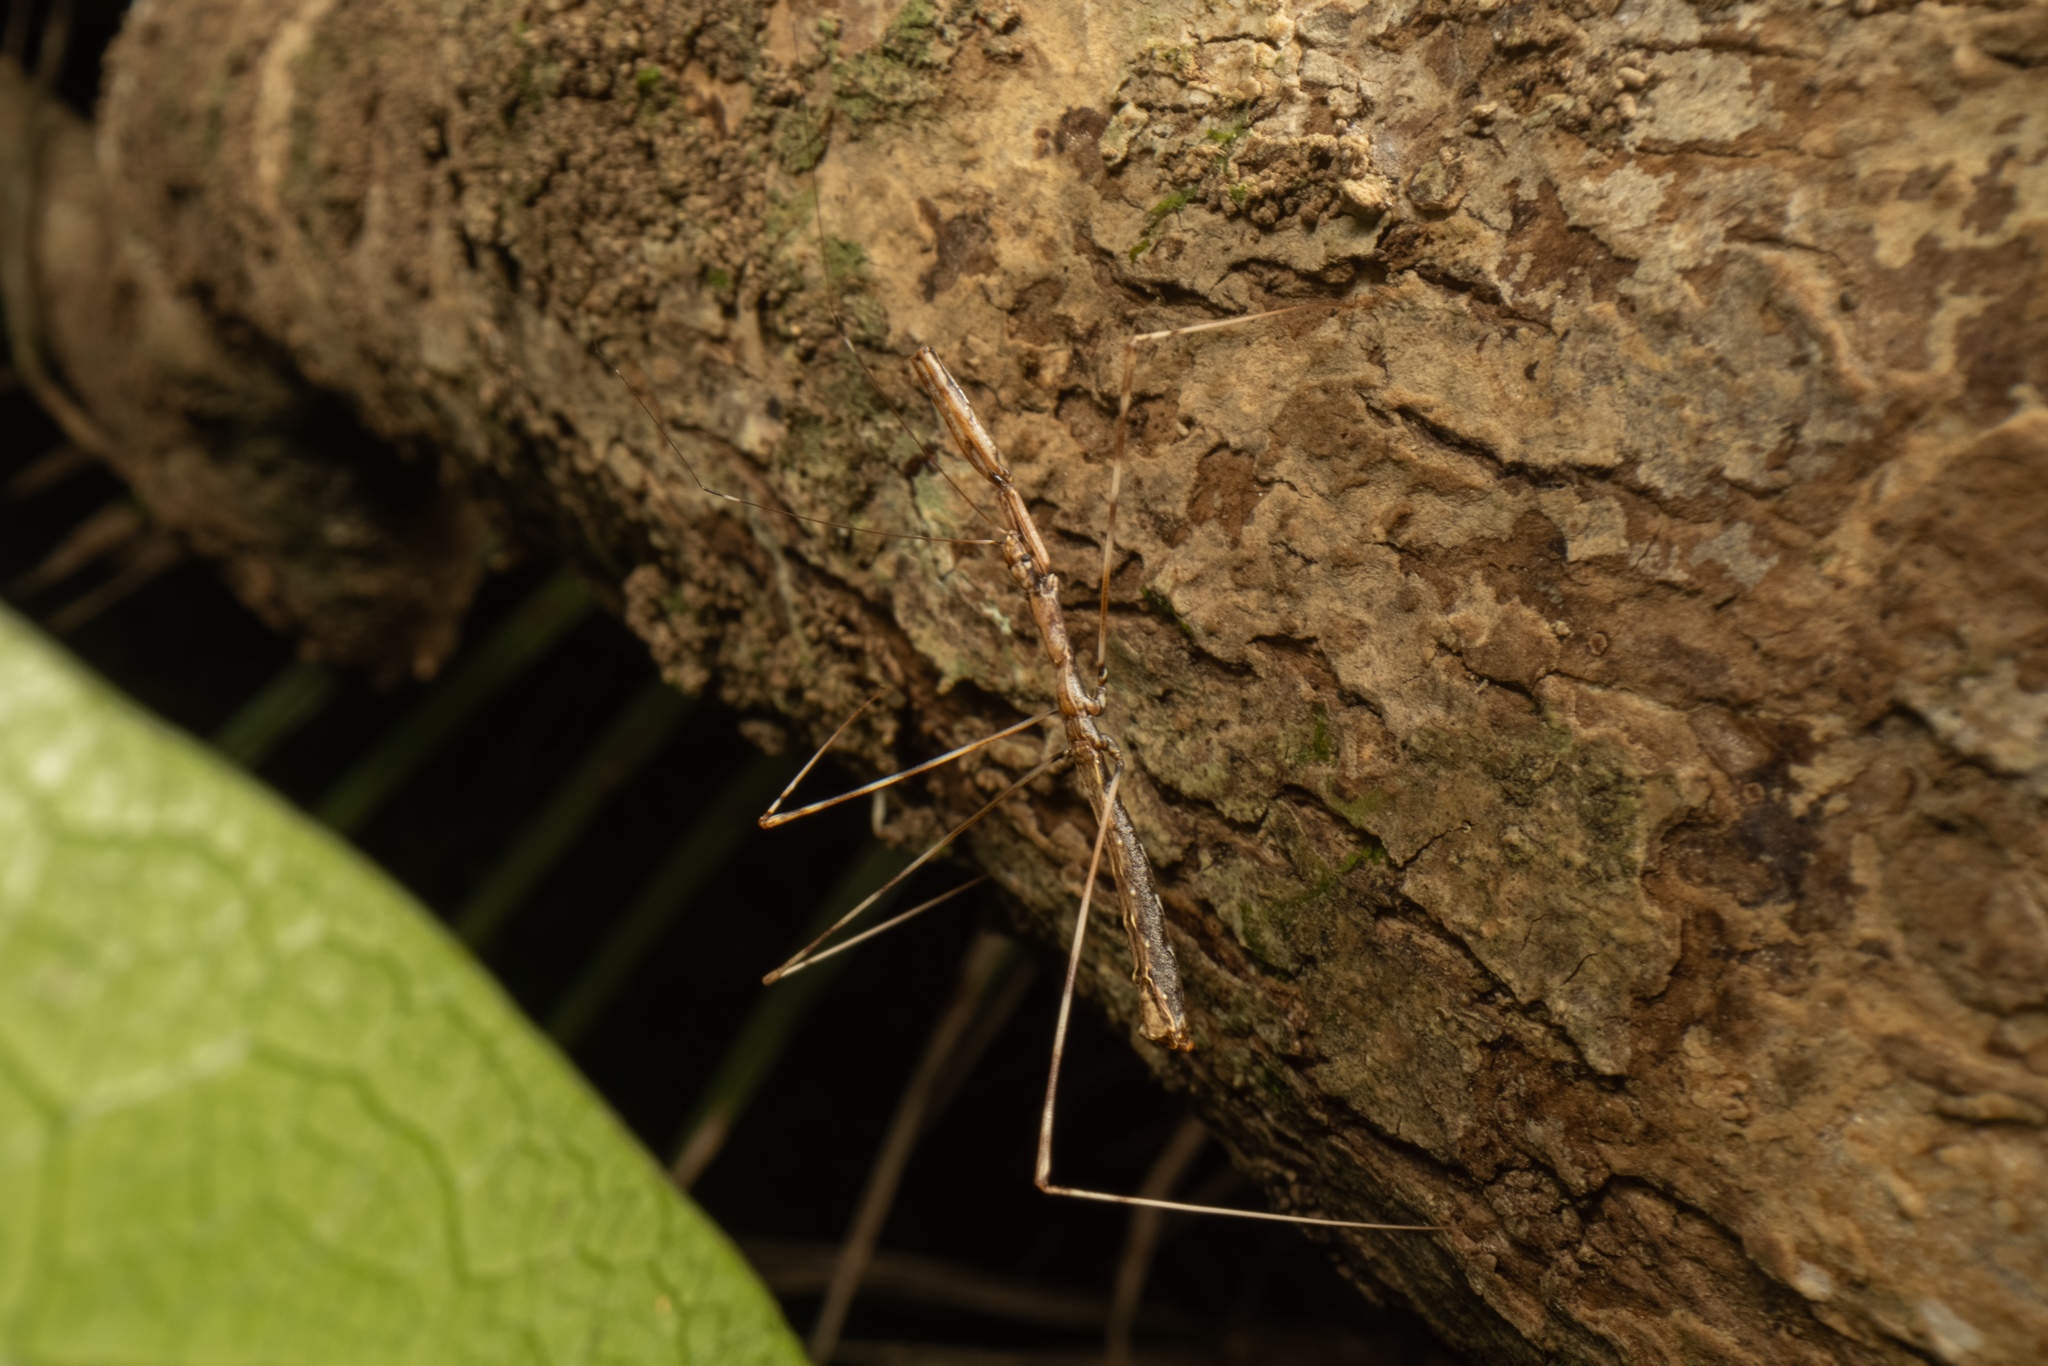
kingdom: Animalia
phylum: Arthropoda
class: Insecta
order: Hemiptera
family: Reduviidae
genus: Ploiaria
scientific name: Ploiaria antipodum
